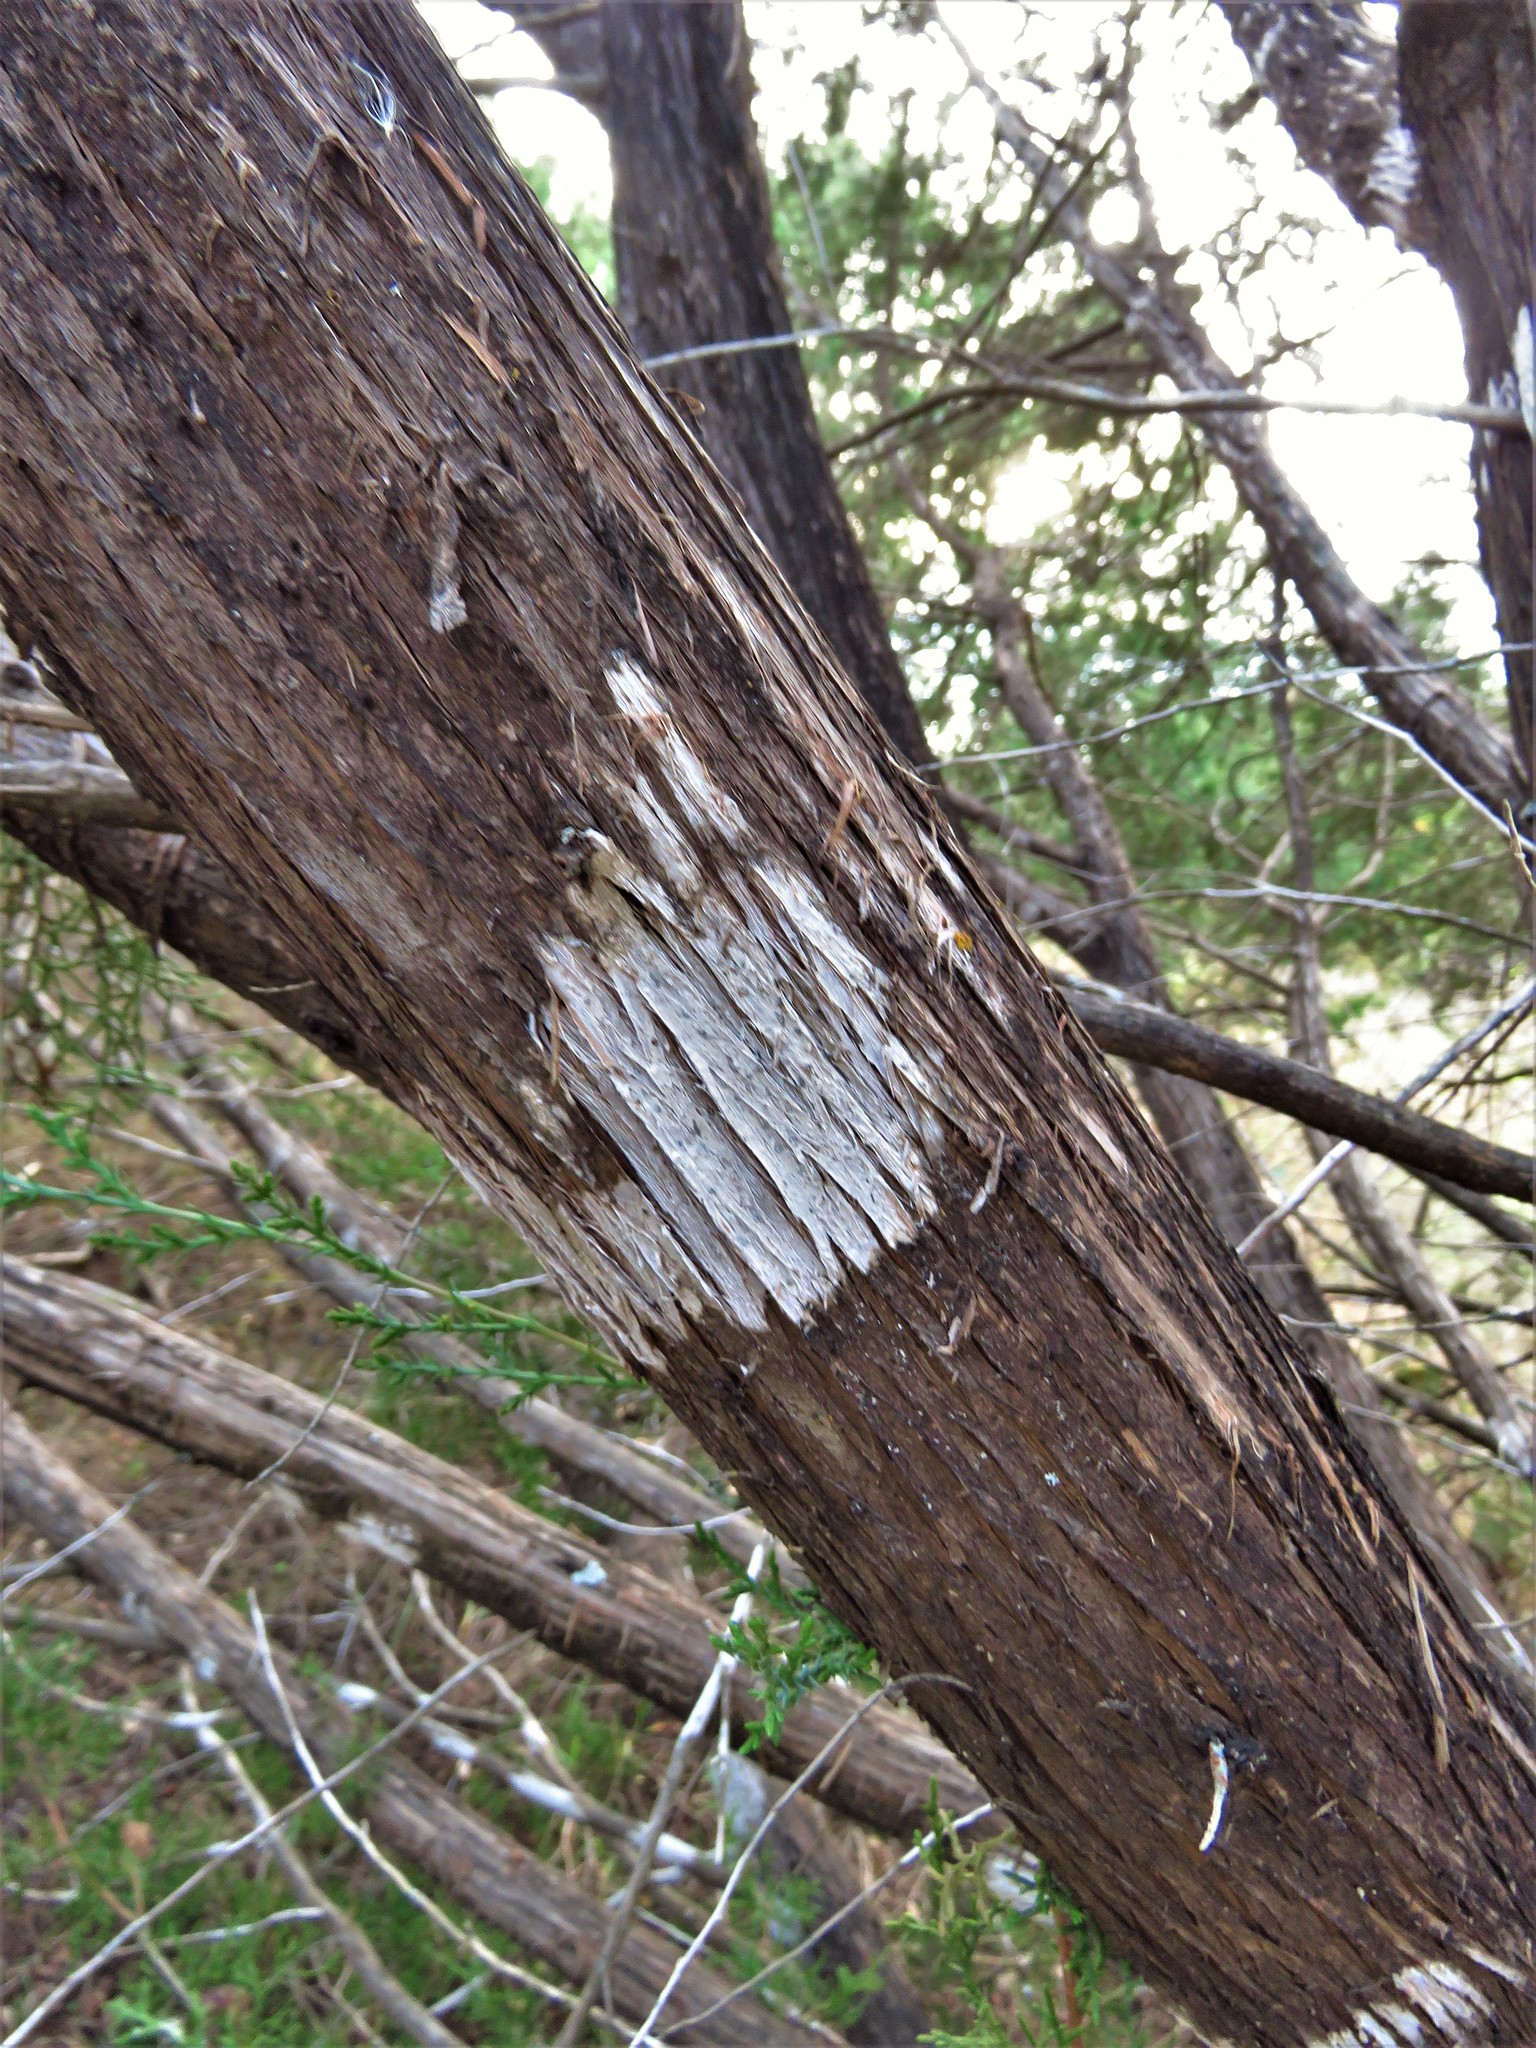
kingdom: Fungi
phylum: Ascomycota
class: Lecanoromycetes
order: Ostropales
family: Stictidaceae
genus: Robergea
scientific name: Robergea
